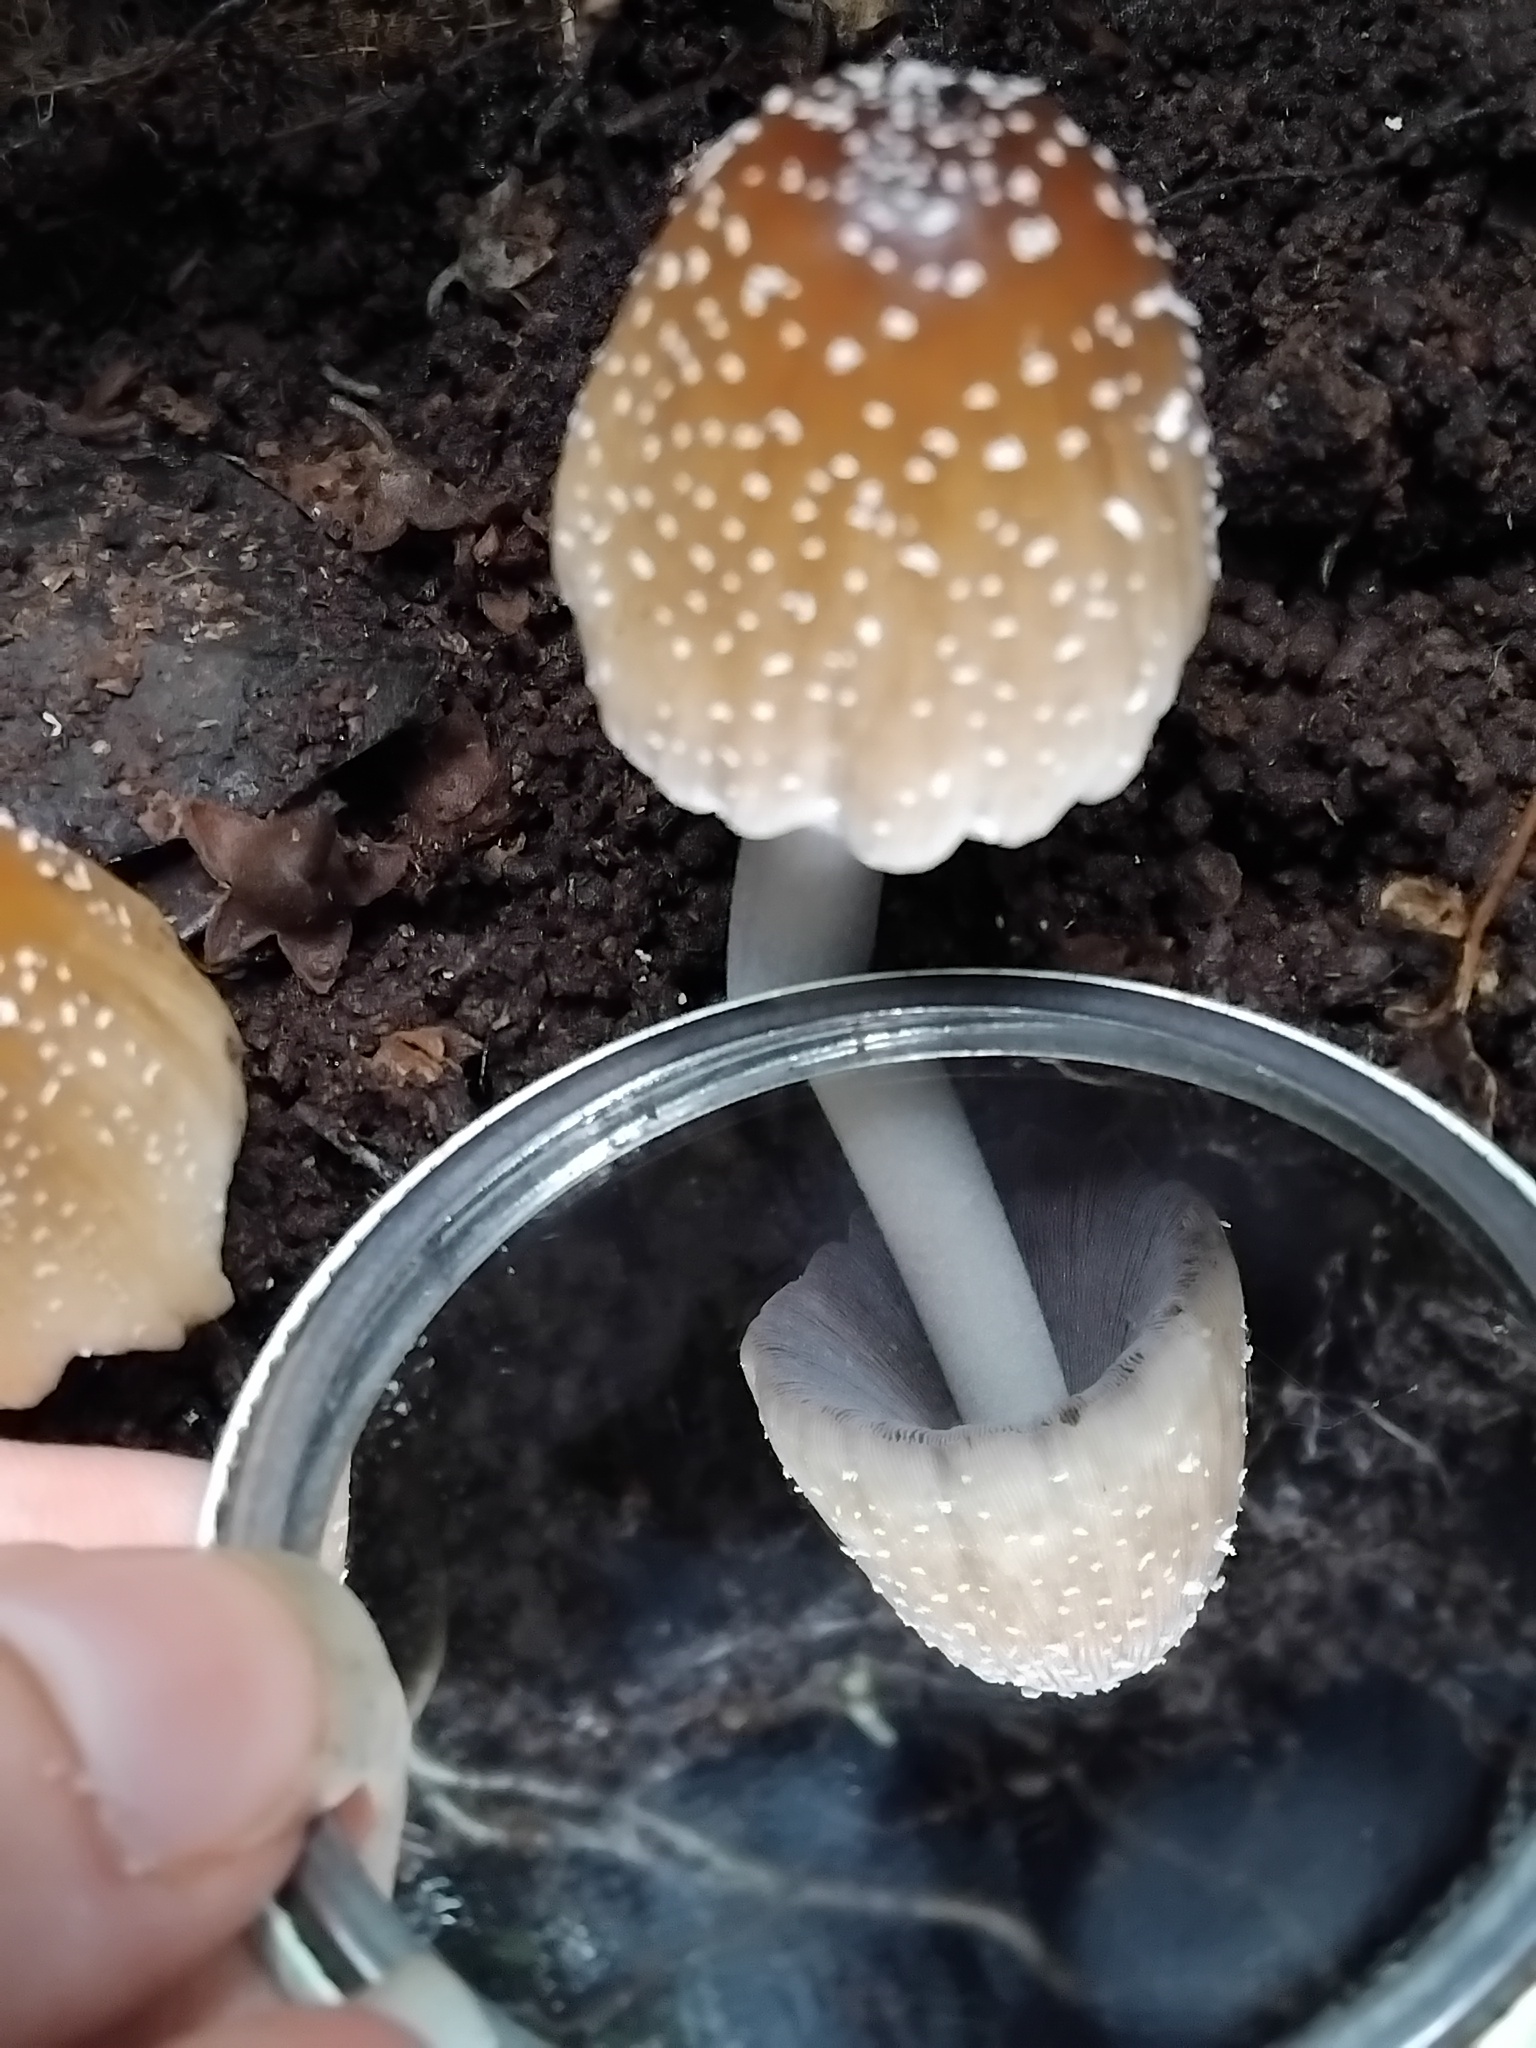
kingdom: Fungi
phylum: Basidiomycota
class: Agaricomycetes
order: Agaricales
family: Psathyrellaceae
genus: Coprinellus
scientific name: Coprinellus domesticus
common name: Firerug inkcap
